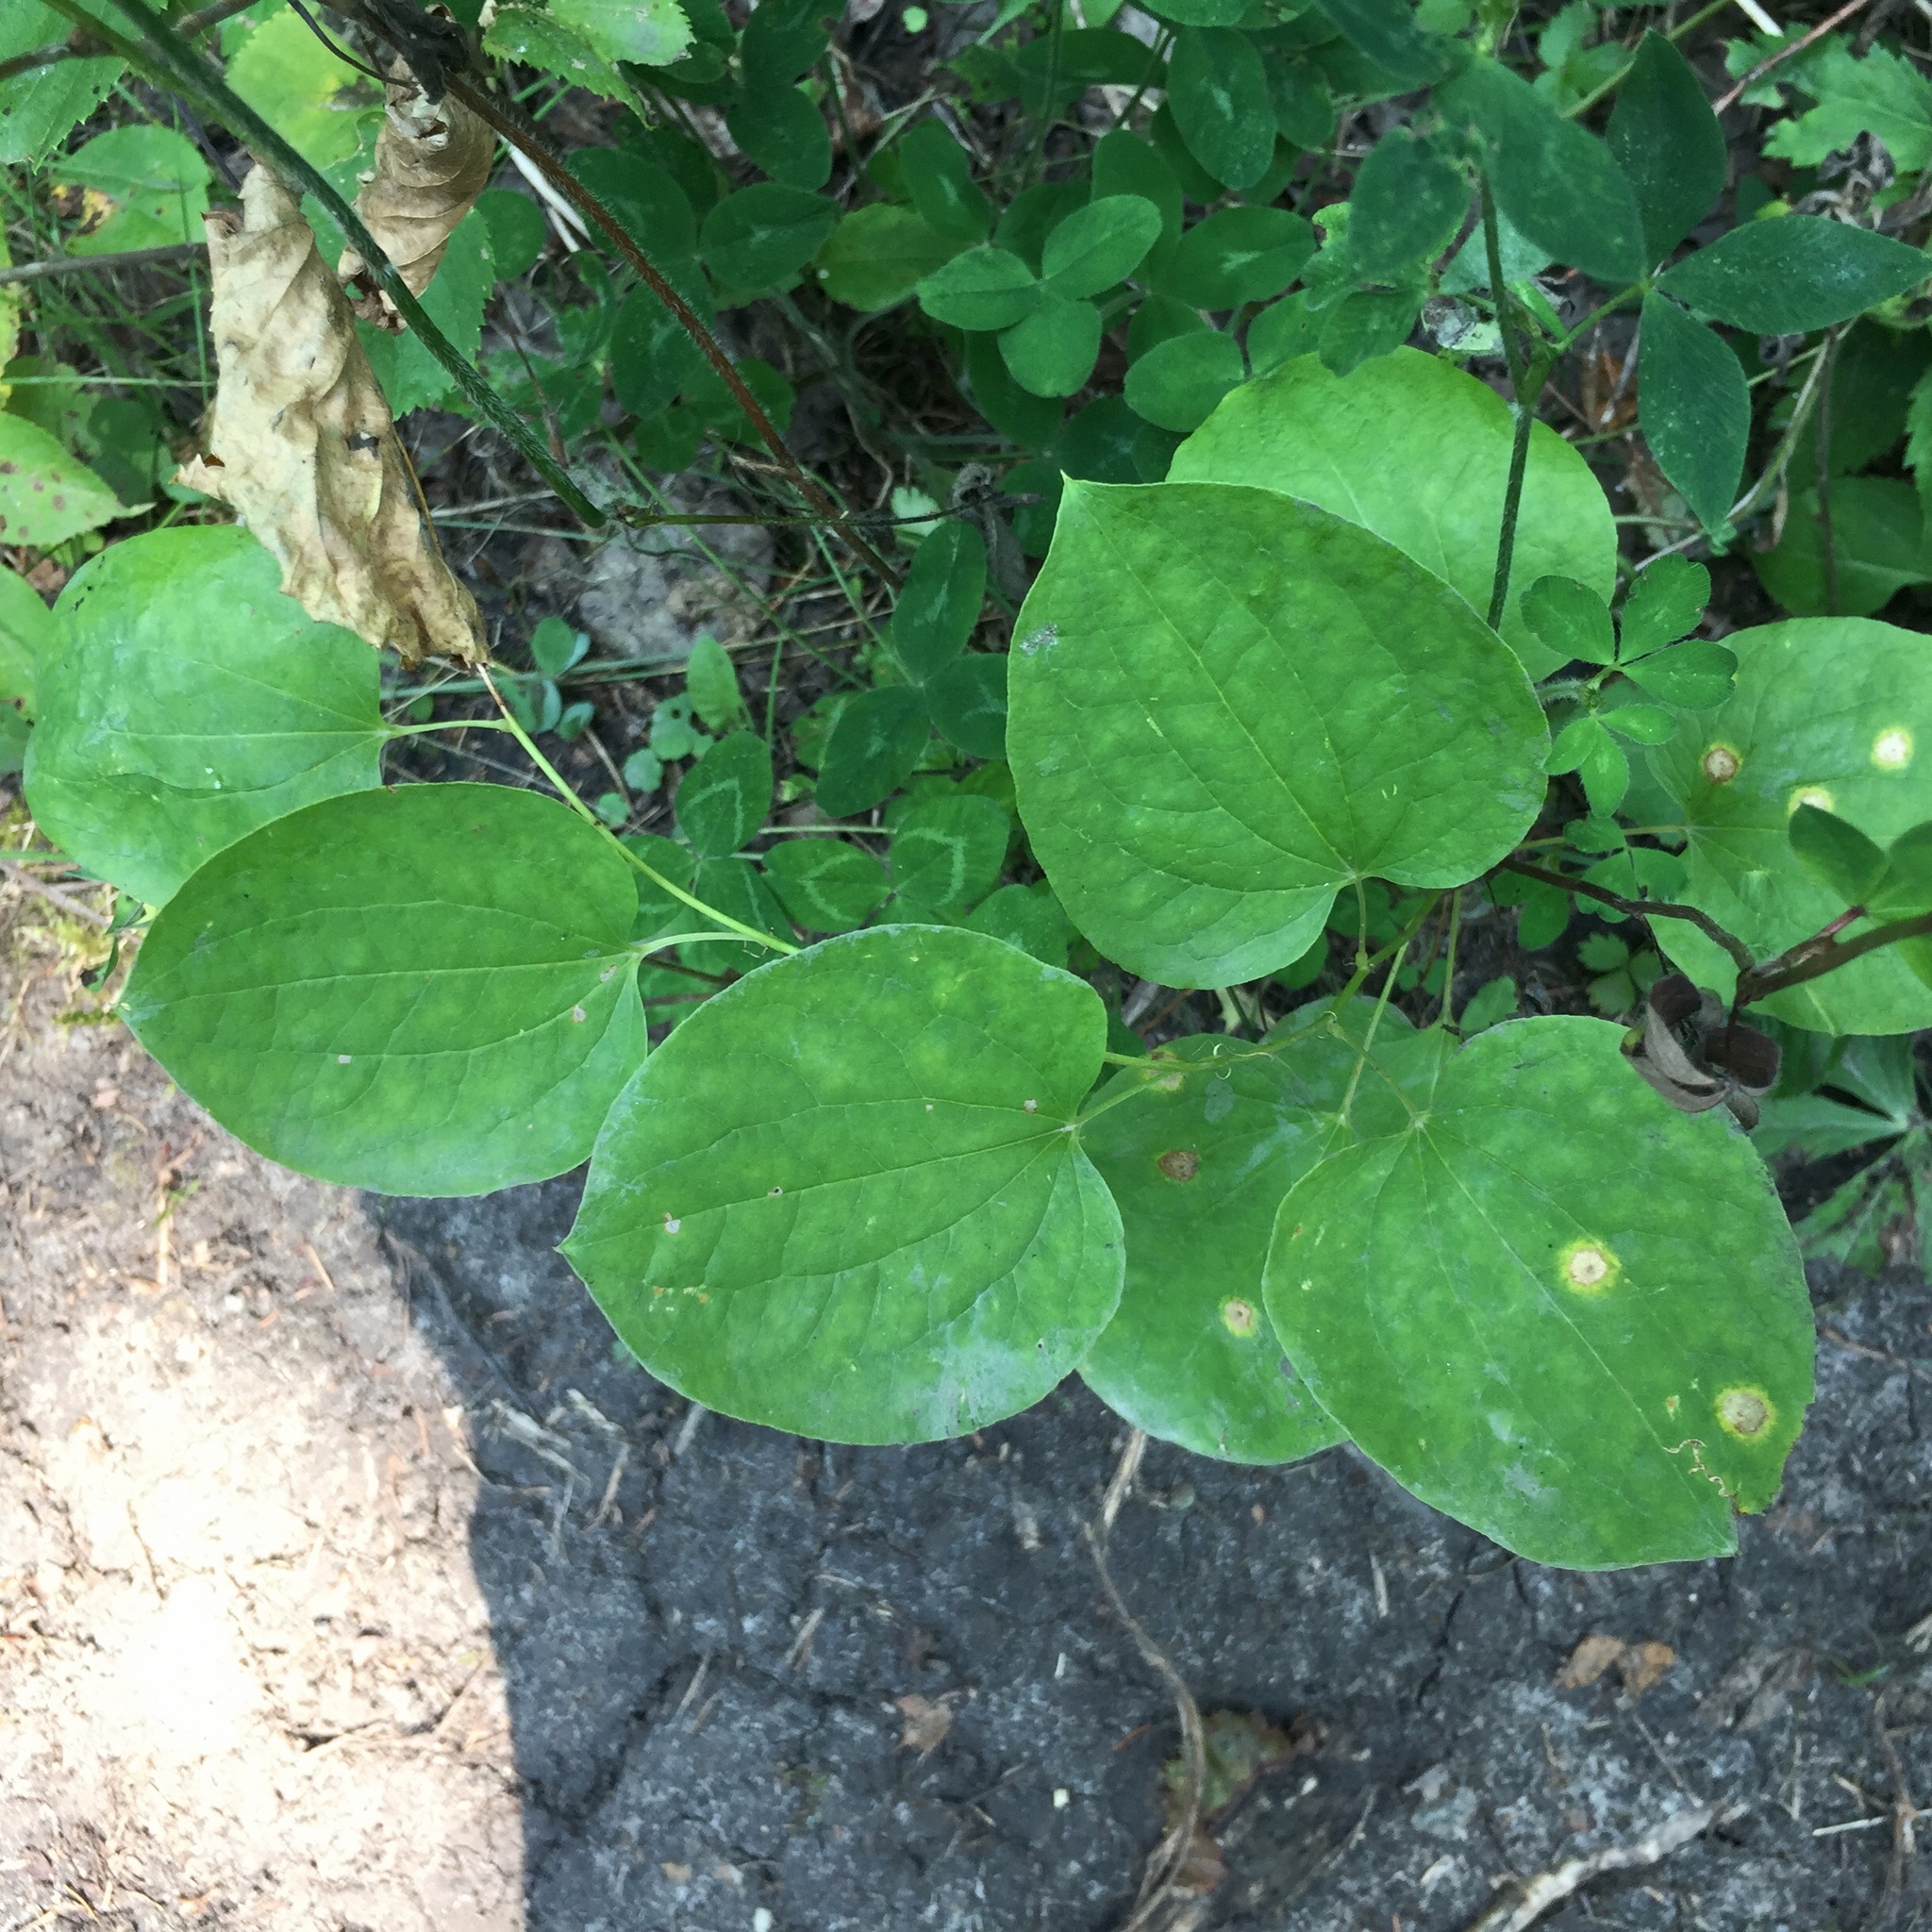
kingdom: Plantae
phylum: Tracheophyta
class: Liliopsida
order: Liliales
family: Smilacaceae
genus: Smilax
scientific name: Smilax lasioneura
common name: Blue ridge carrionflower
